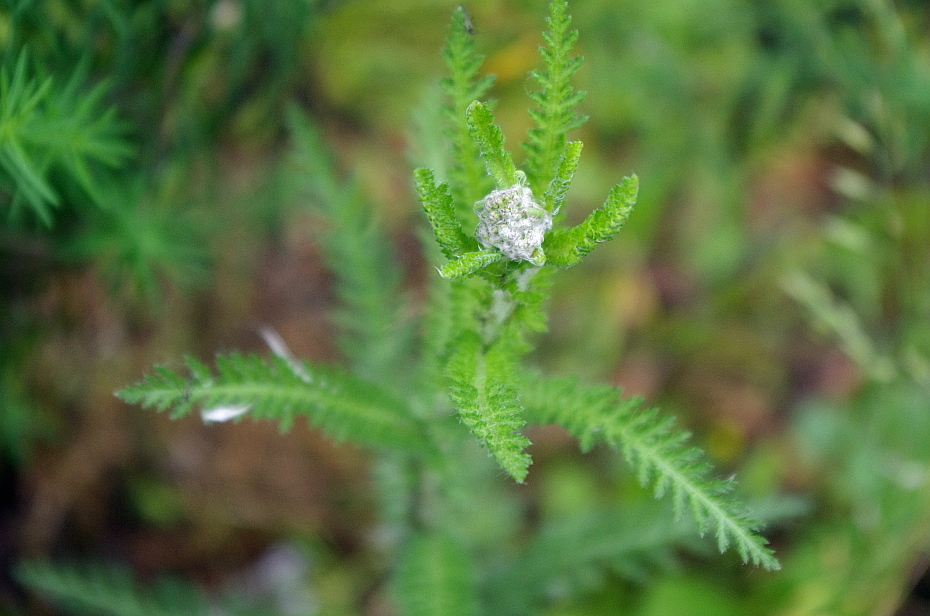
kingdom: Plantae
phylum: Tracheophyta
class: Magnoliopsida
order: Asterales
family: Asteraceae
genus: Achillea
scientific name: Achillea millefolium
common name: Yarrow
